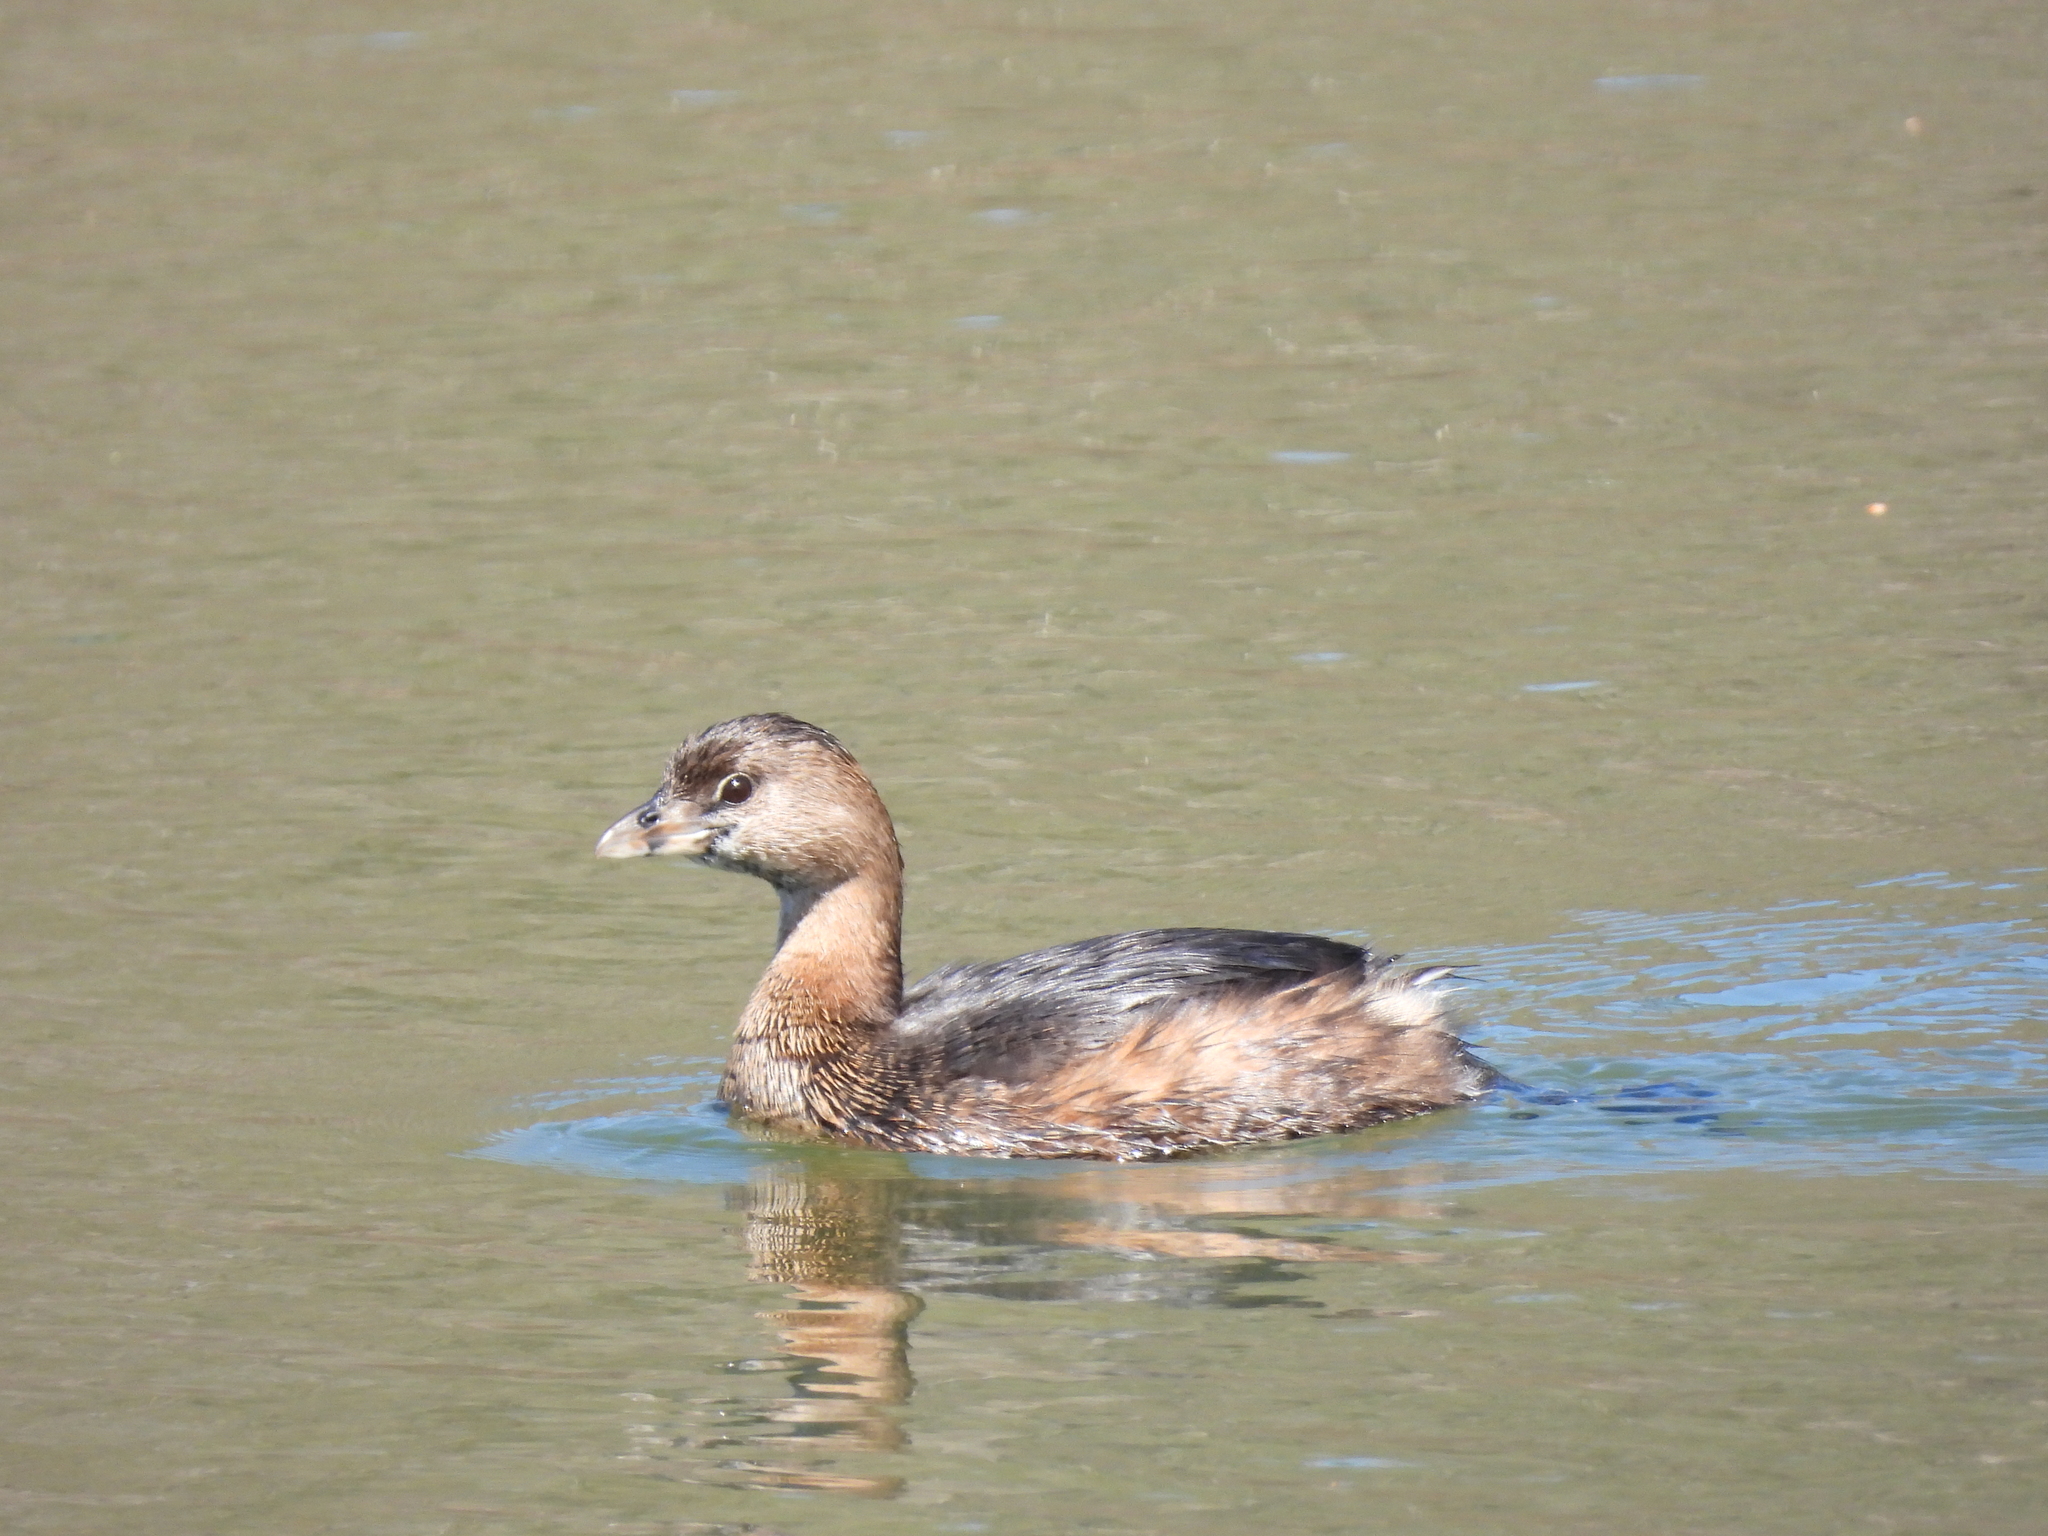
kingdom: Animalia
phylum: Chordata
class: Aves
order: Podicipediformes
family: Podicipedidae
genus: Podilymbus
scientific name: Podilymbus podiceps
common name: Pied-billed grebe
